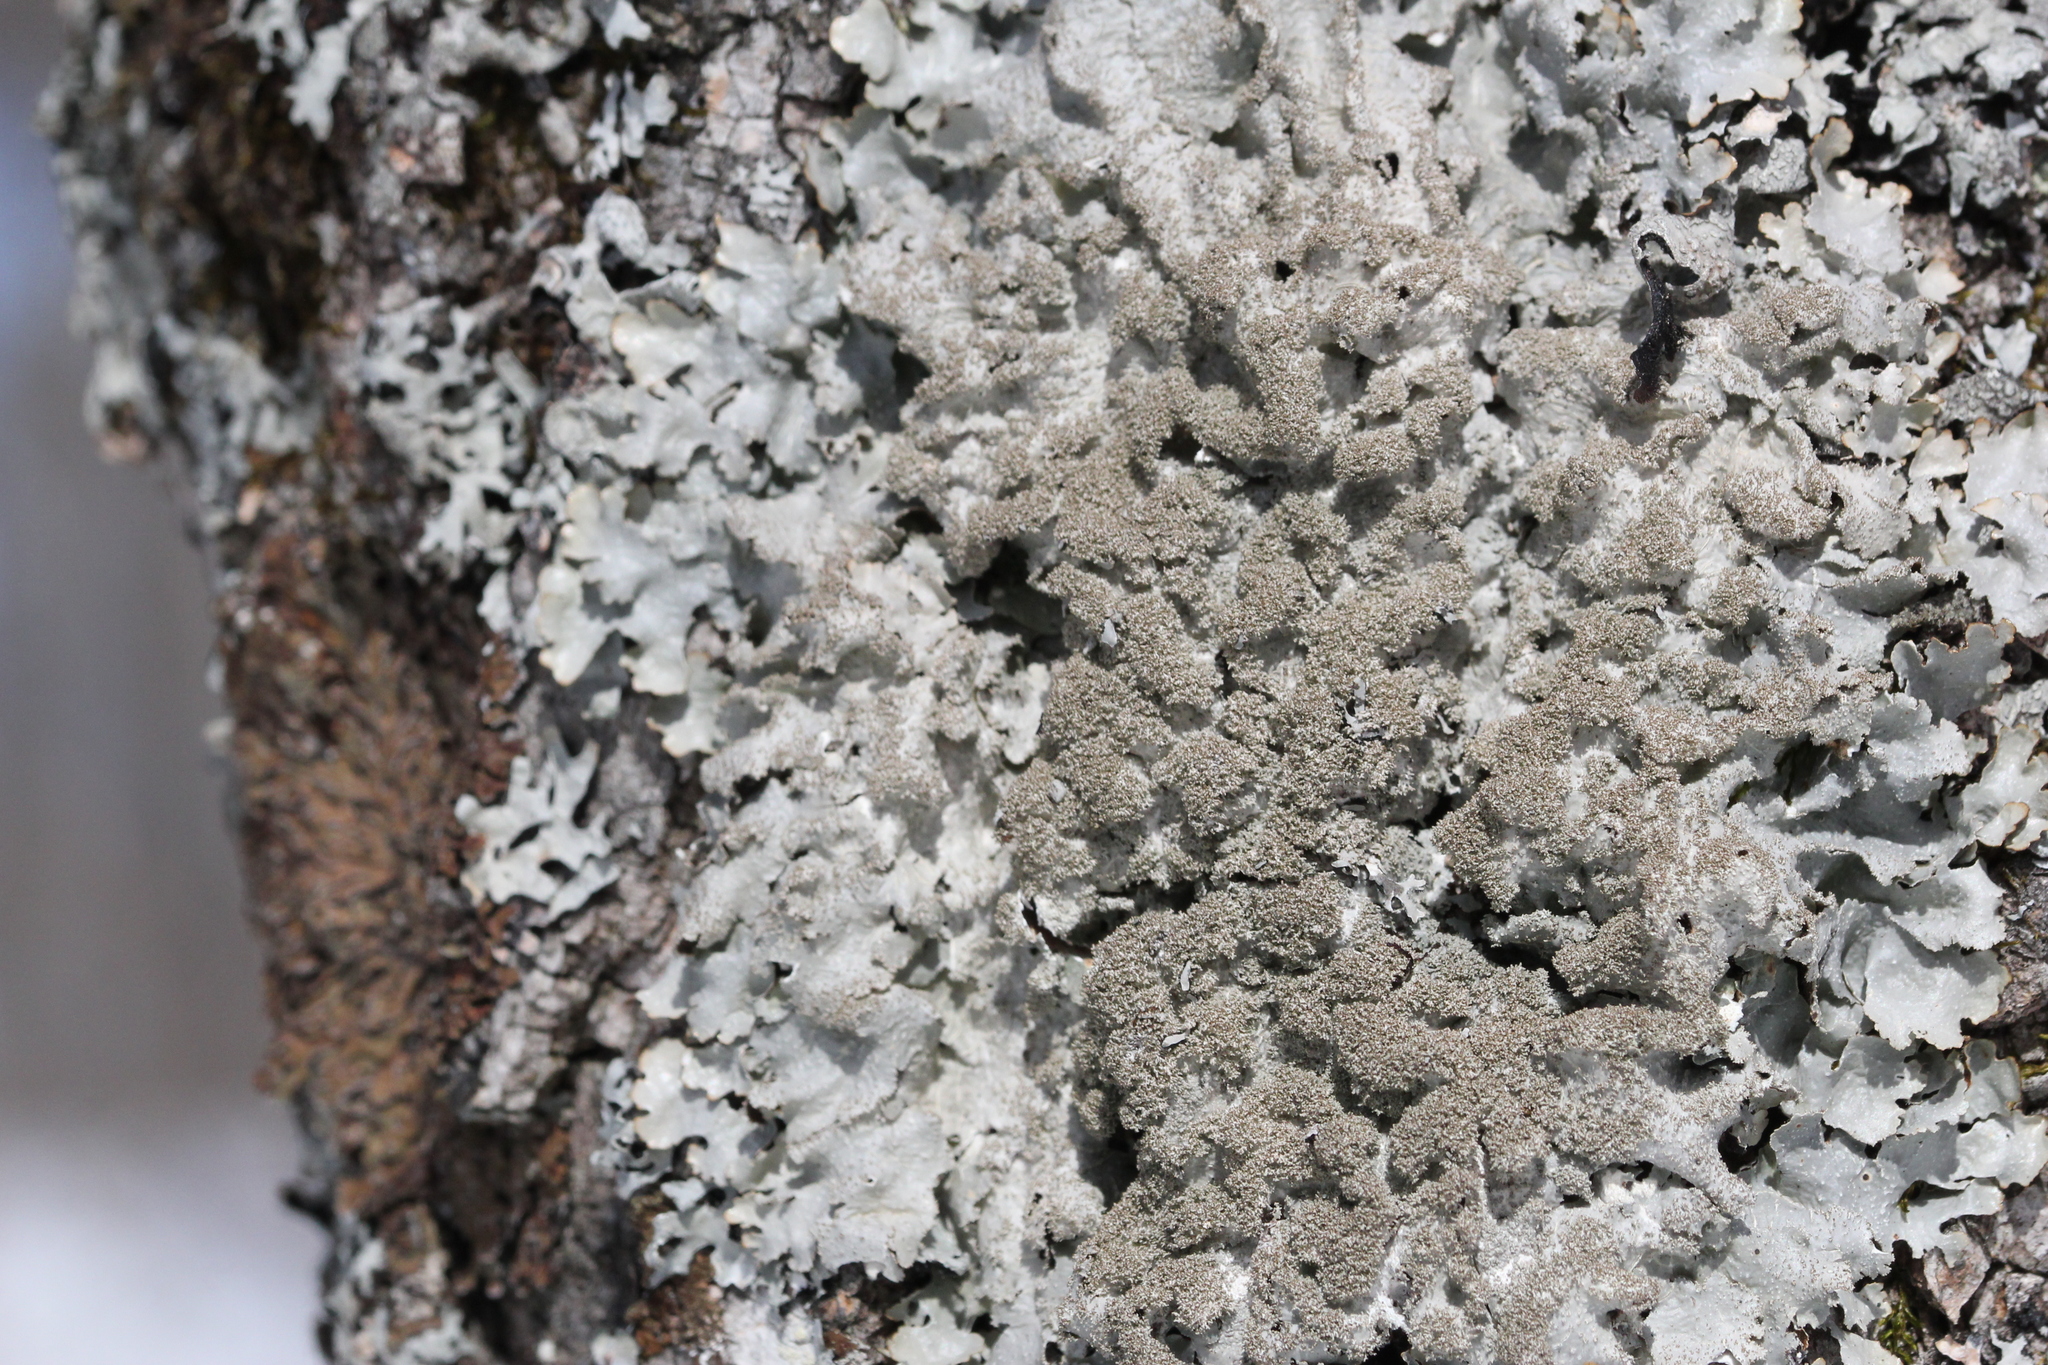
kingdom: Fungi
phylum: Ascomycota
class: Lecanoromycetes
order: Lecanorales
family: Parmeliaceae
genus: Punctelia
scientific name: Punctelia rudecta
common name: Rough speckled shield lichen
